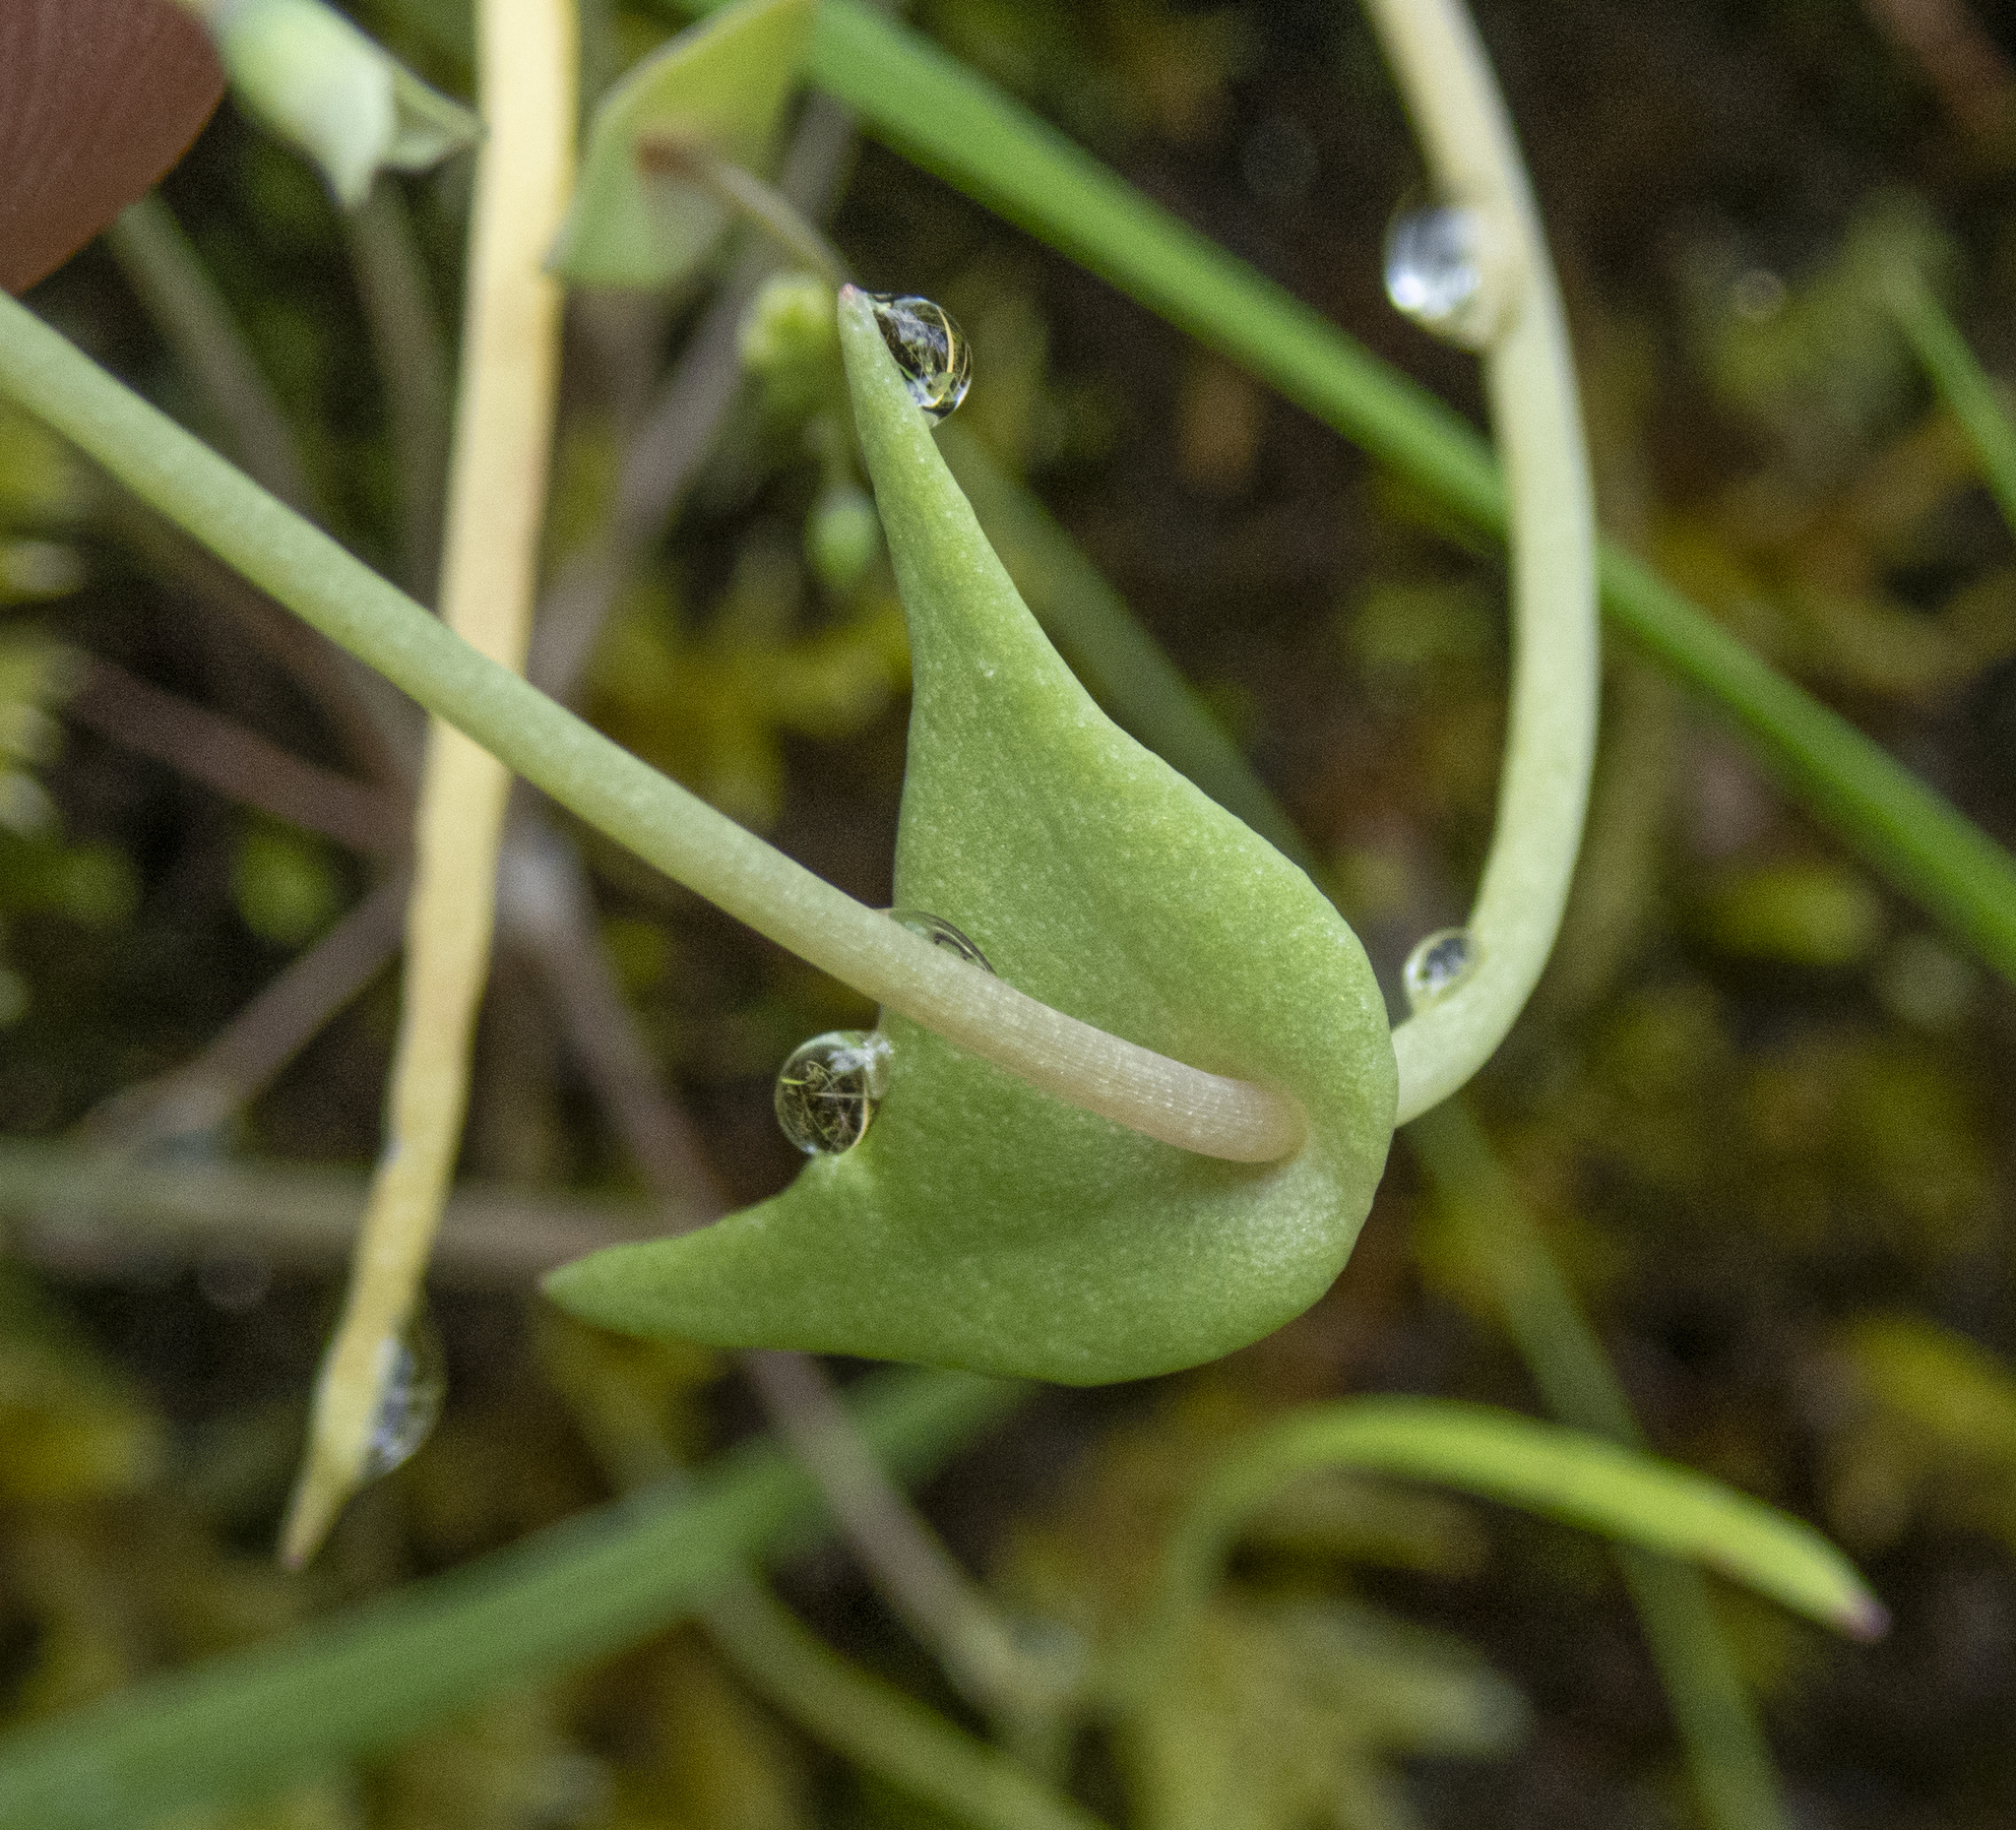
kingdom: Plantae
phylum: Tracheophyta
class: Magnoliopsida
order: Caryophyllales
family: Montiaceae
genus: Claytonia
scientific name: Claytonia gypsophiloides
